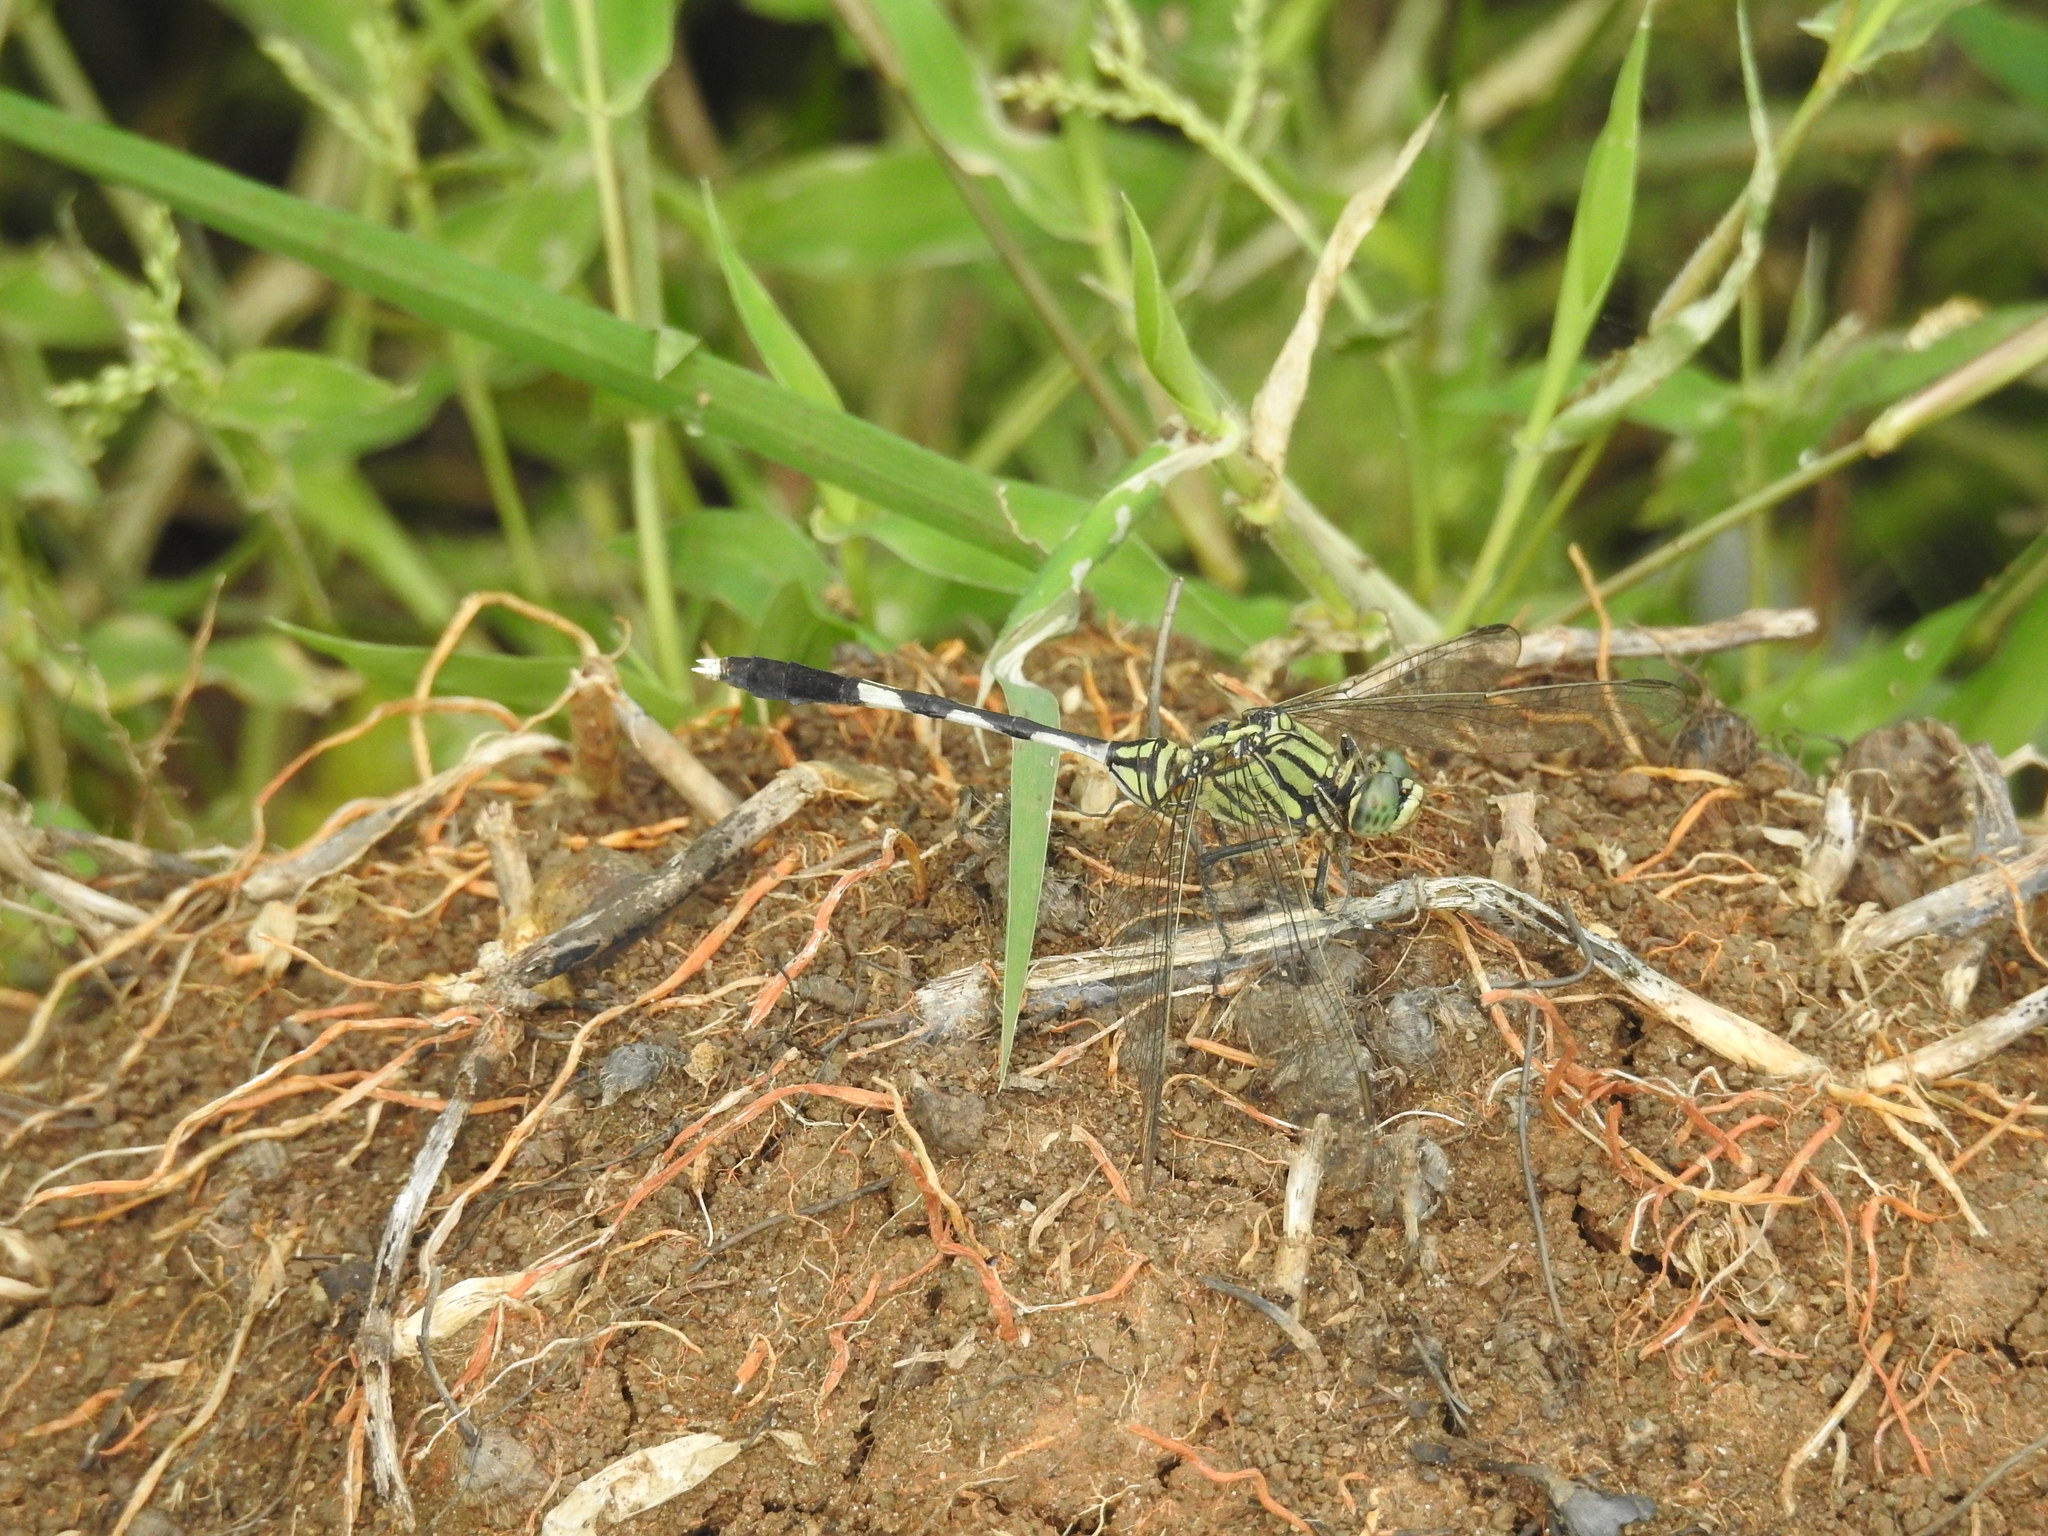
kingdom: Animalia
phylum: Arthropoda
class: Insecta
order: Odonata
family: Libellulidae
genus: Orthetrum
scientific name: Orthetrum sabina
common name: Slender skimmer
